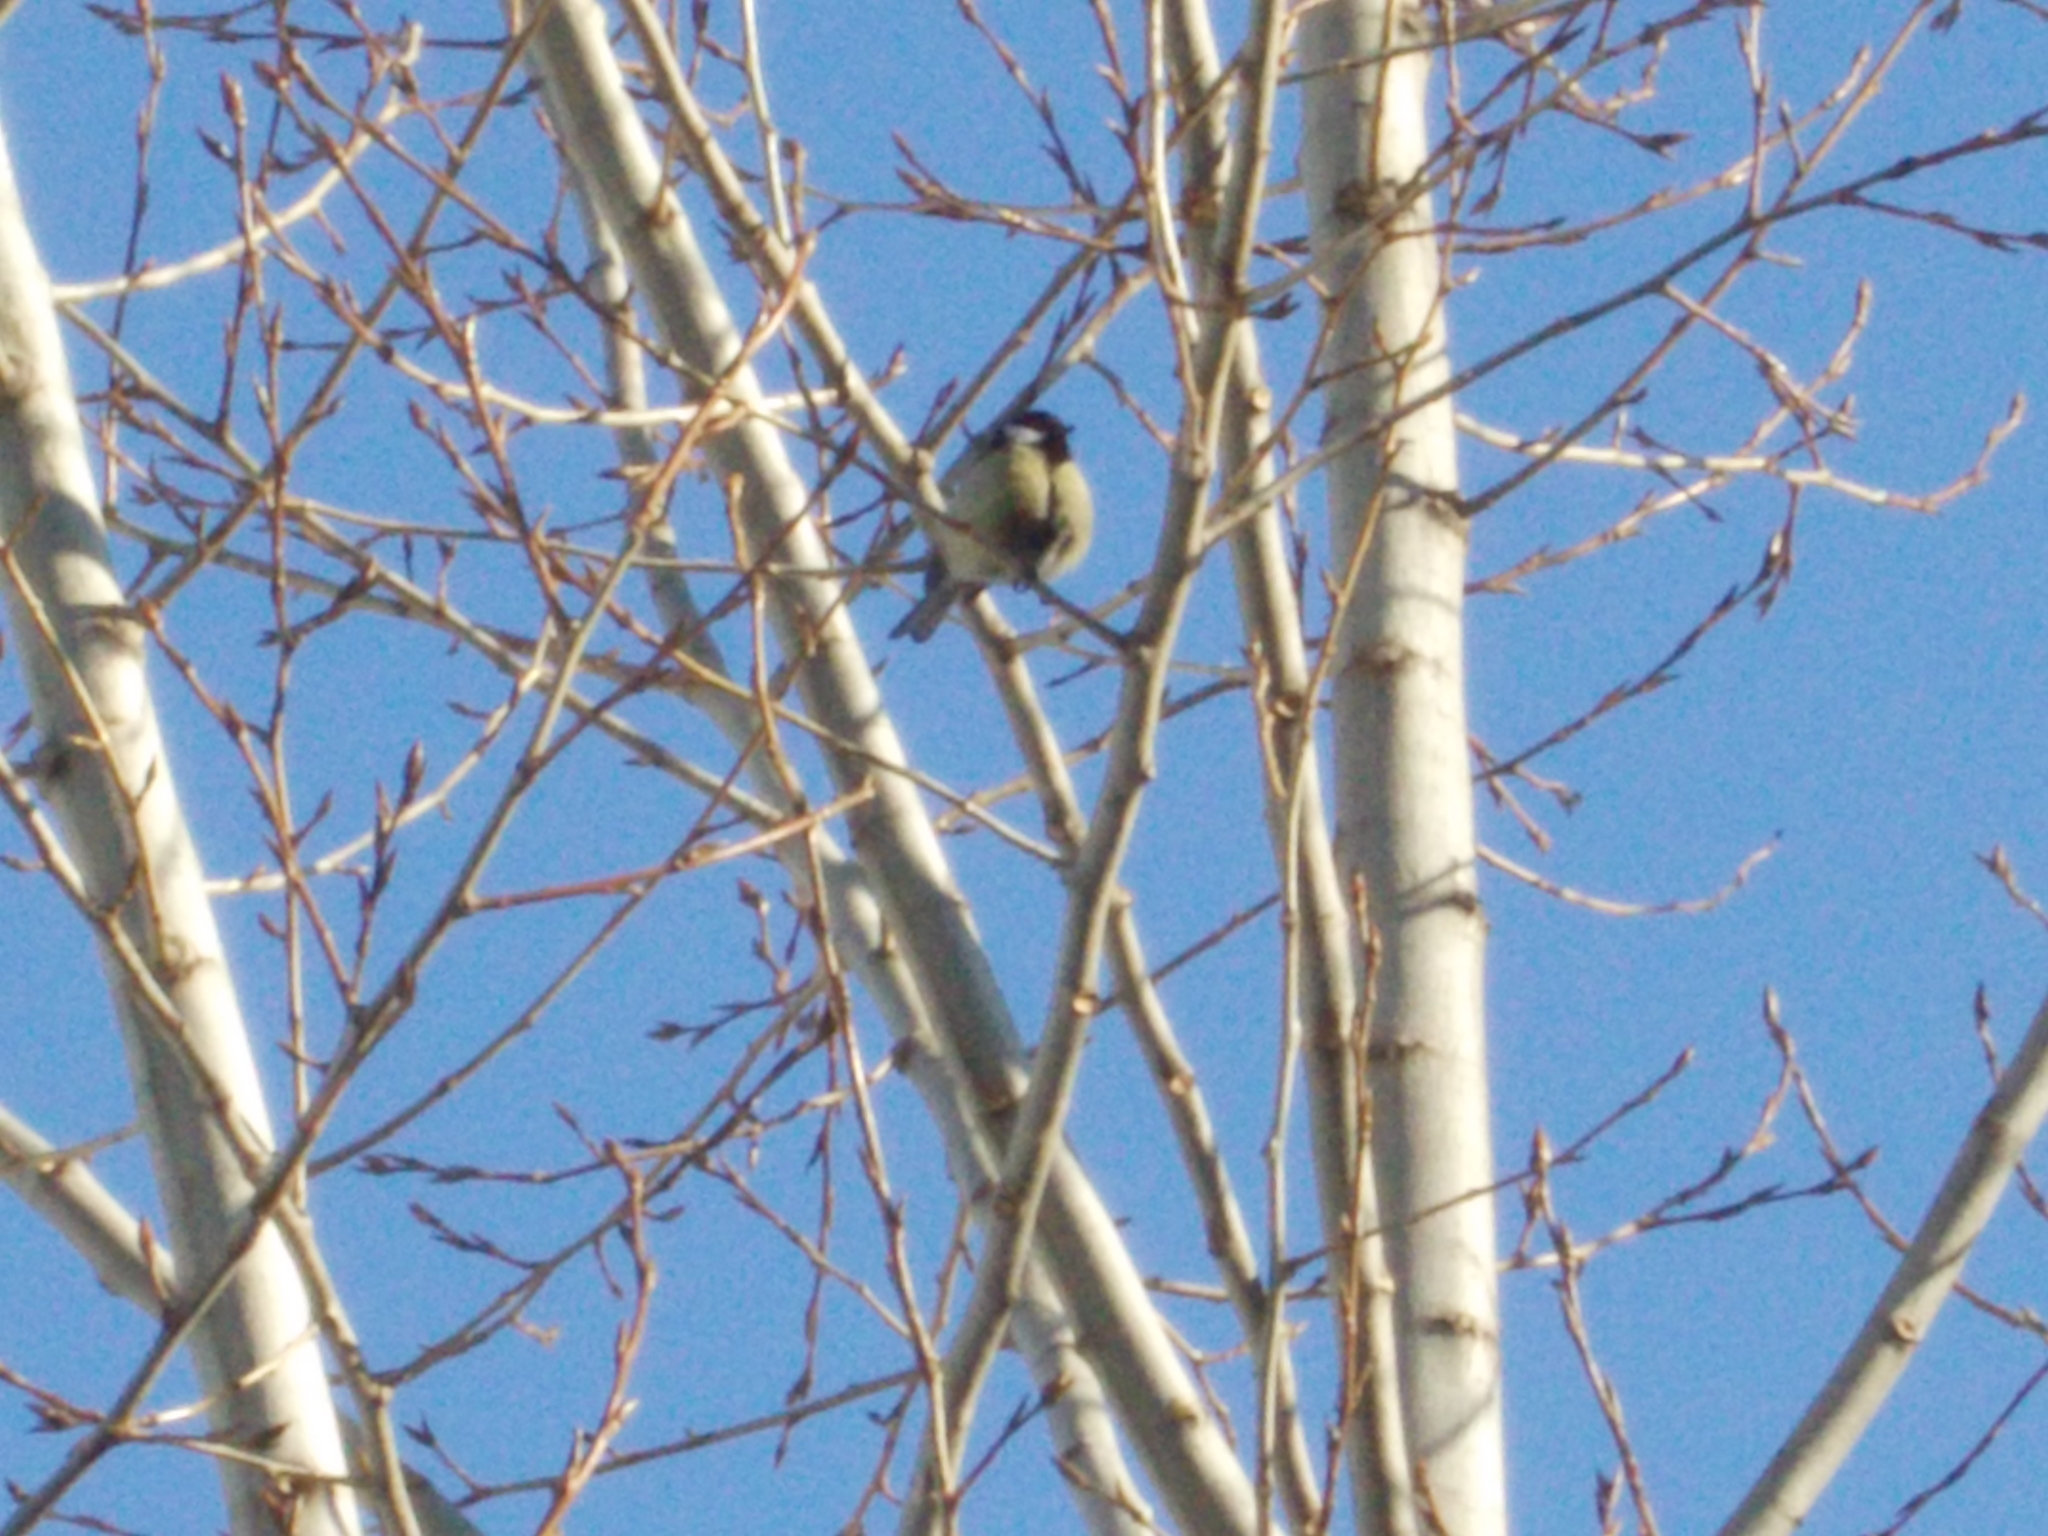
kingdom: Animalia
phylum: Chordata
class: Aves
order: Passeriformes
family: Paridae
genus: Parus
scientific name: Parus major
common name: Great tit
